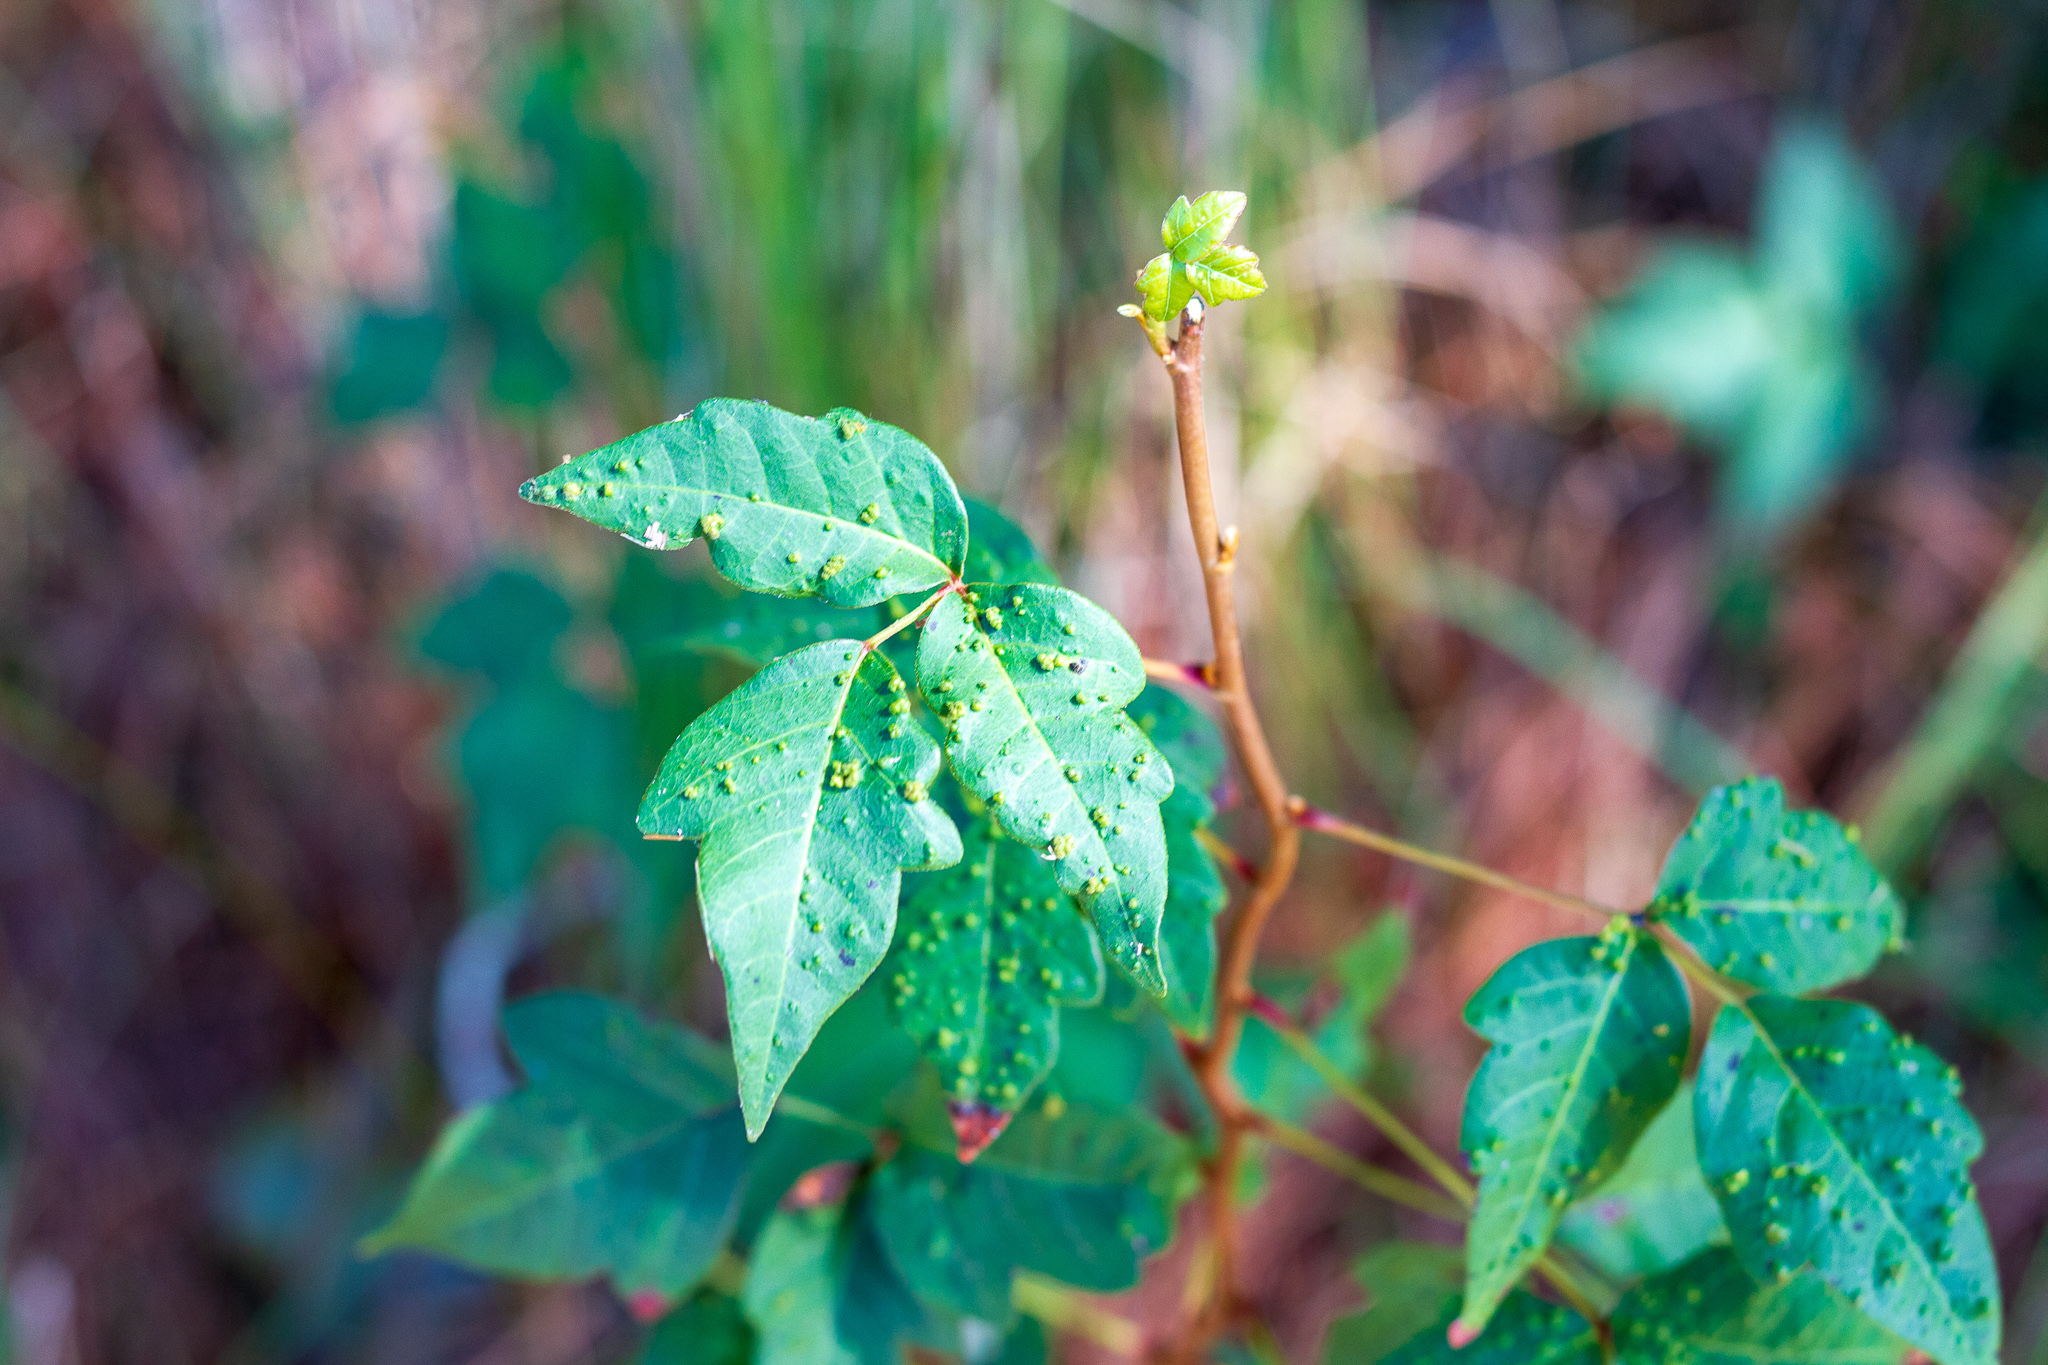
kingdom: Plantae
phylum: Tracheophyta
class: Magnoliopsida
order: Sapindales
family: Anacardiaceae
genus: Toxicodendron
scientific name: Toxicodendron radicans
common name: Poison ivy
